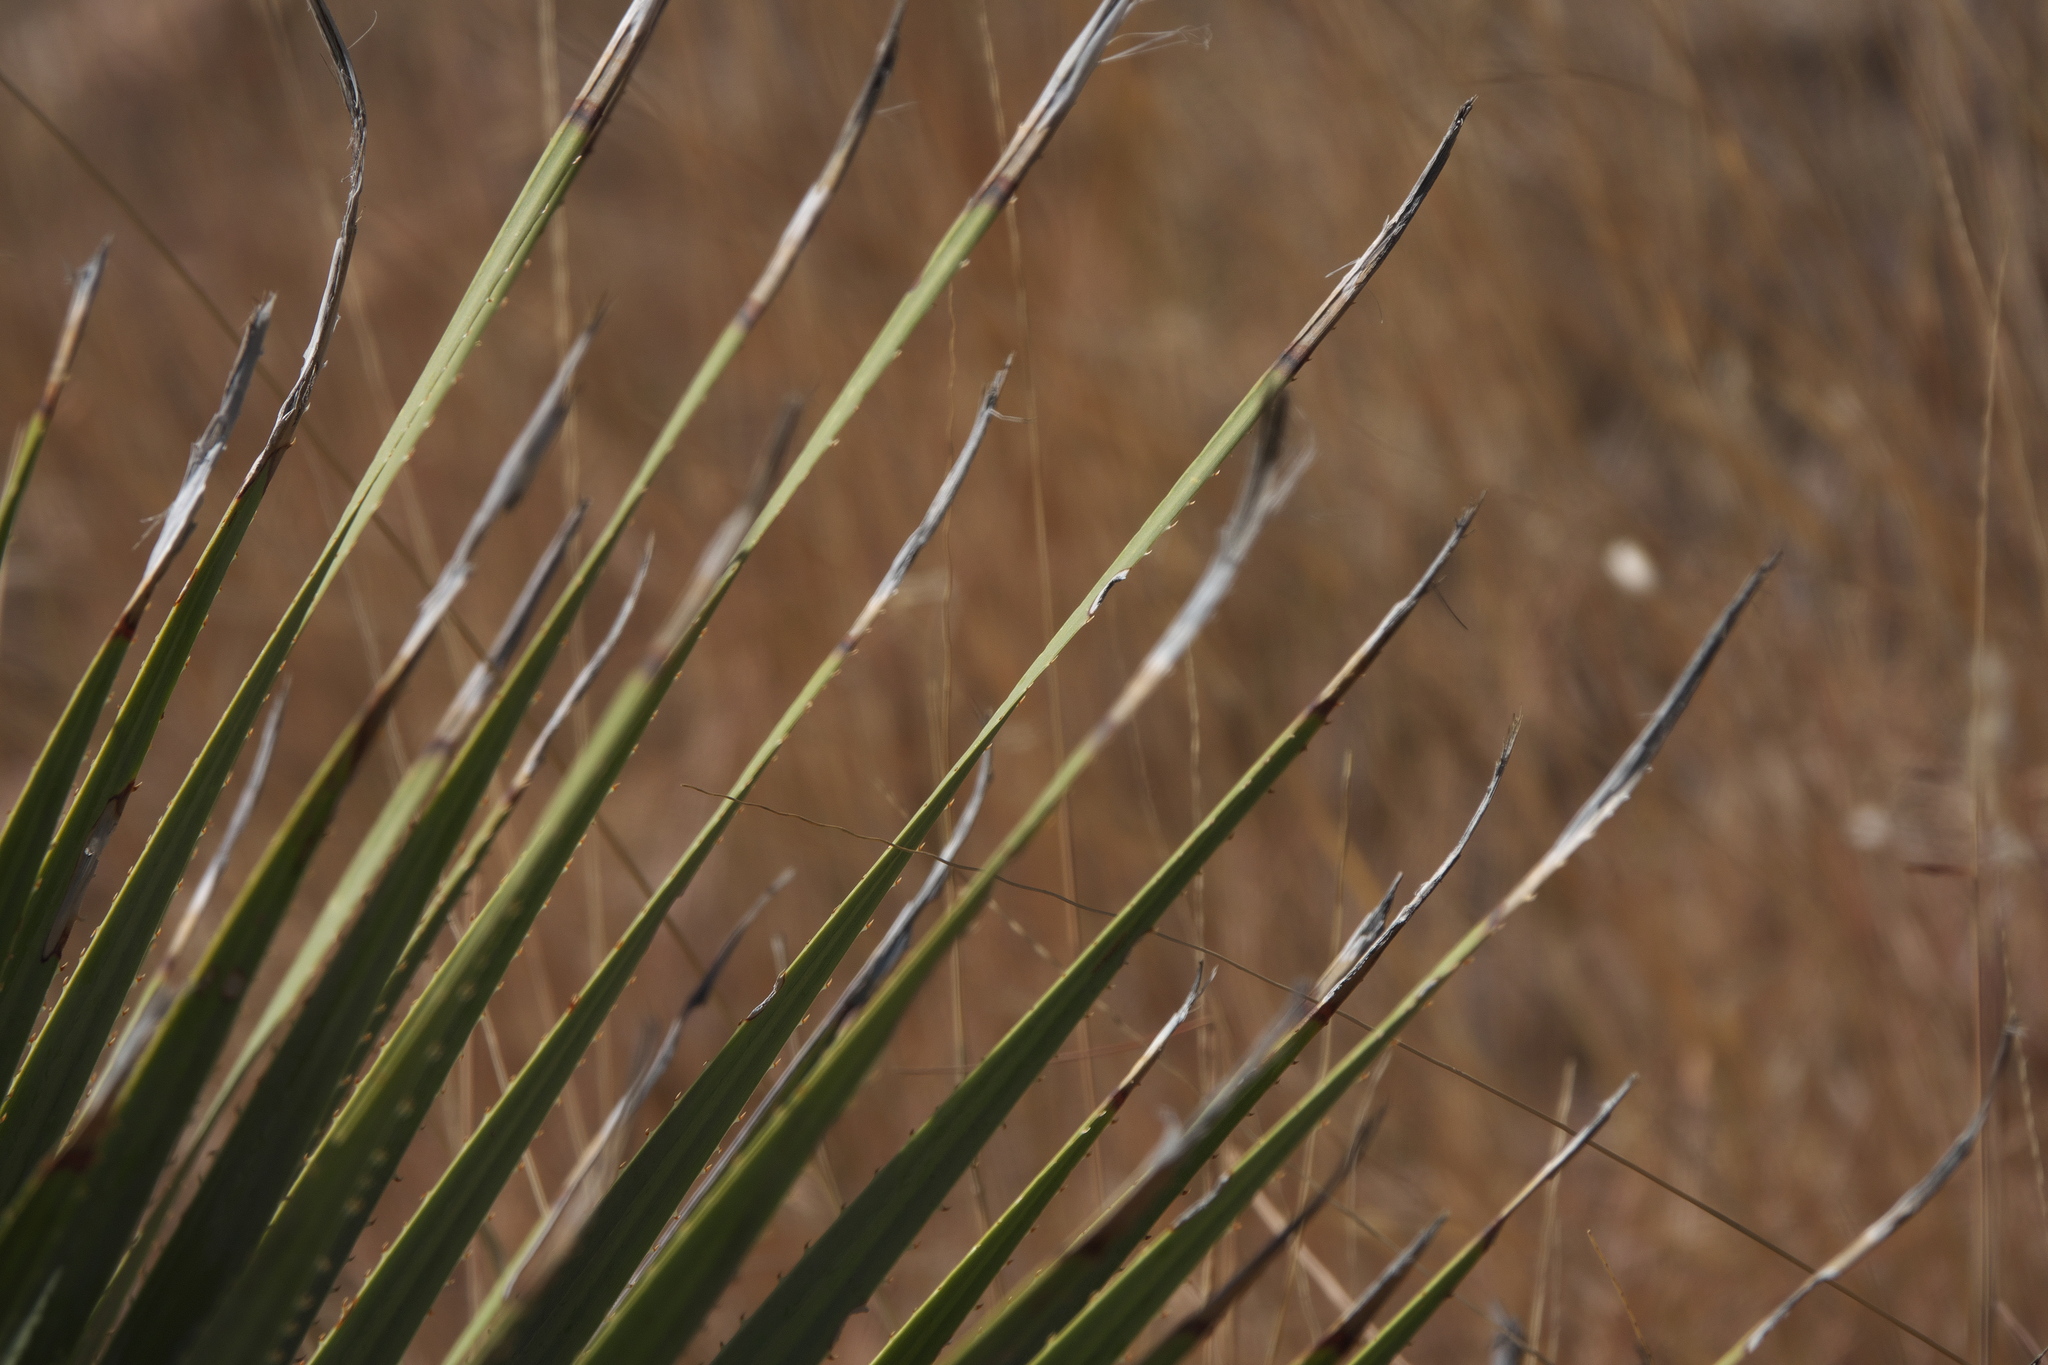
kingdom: Plantae
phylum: Tracheophyta
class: Liliopsida
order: Asparagales
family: Asparagaceae
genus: Dasylirion
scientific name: Dasylirion wheeleri
